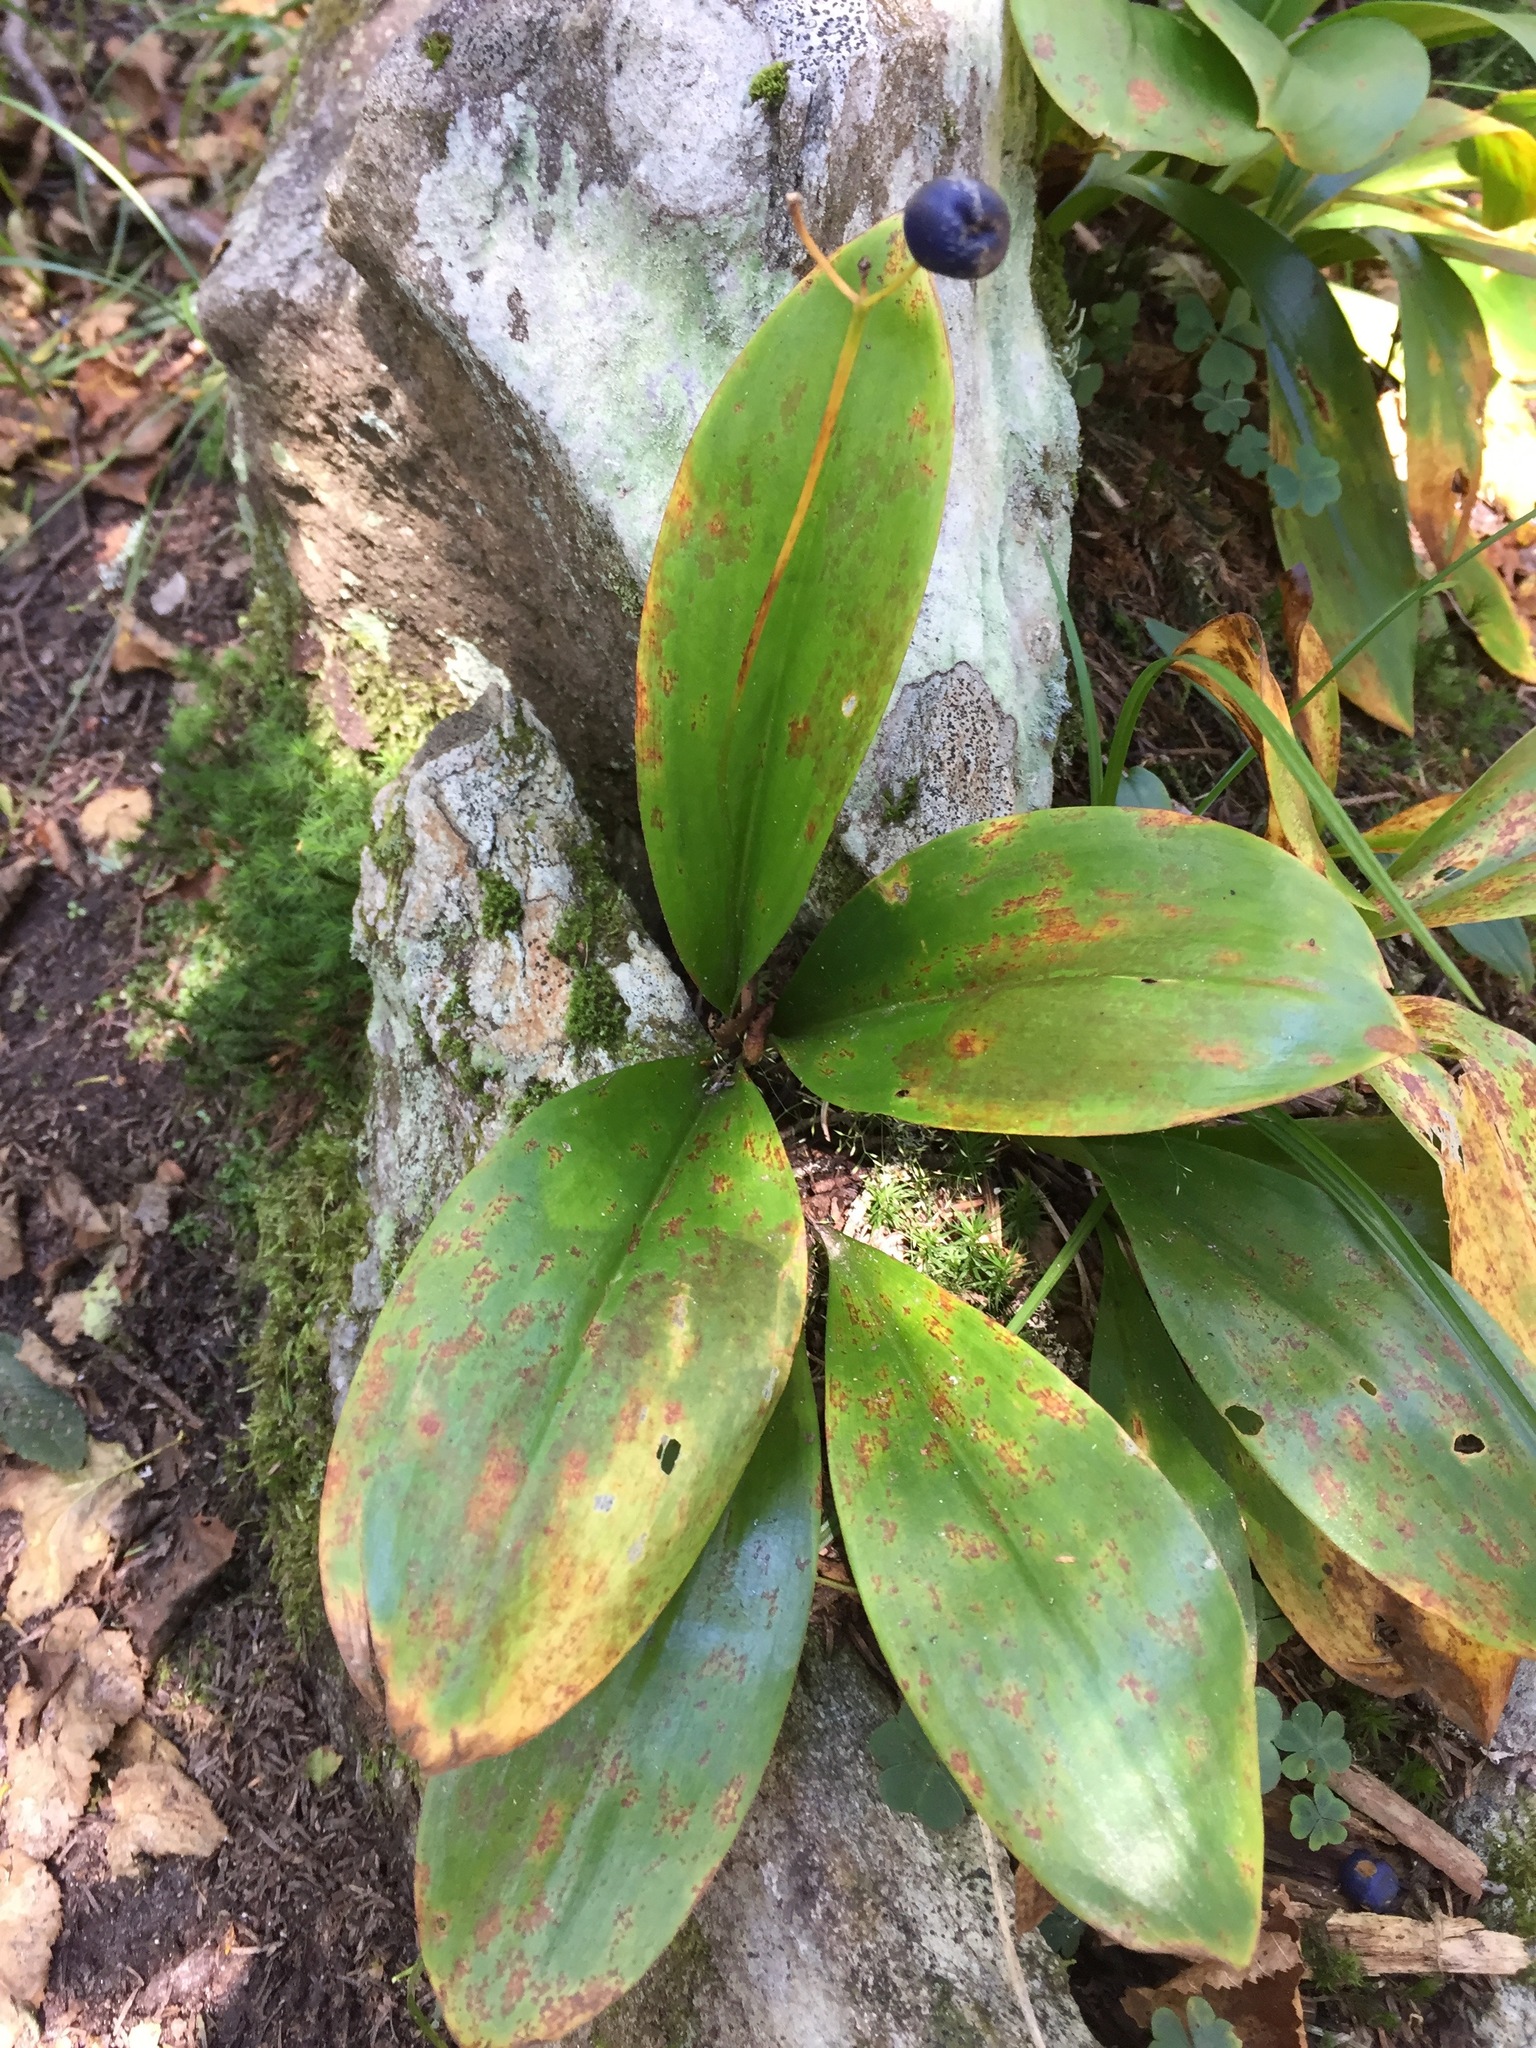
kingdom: Plantae
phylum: Tracheophyta
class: Liliopsida
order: Liliales
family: Liliaceae
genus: Clintonia
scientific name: Clintonia borealis
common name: Yellow clintonia
